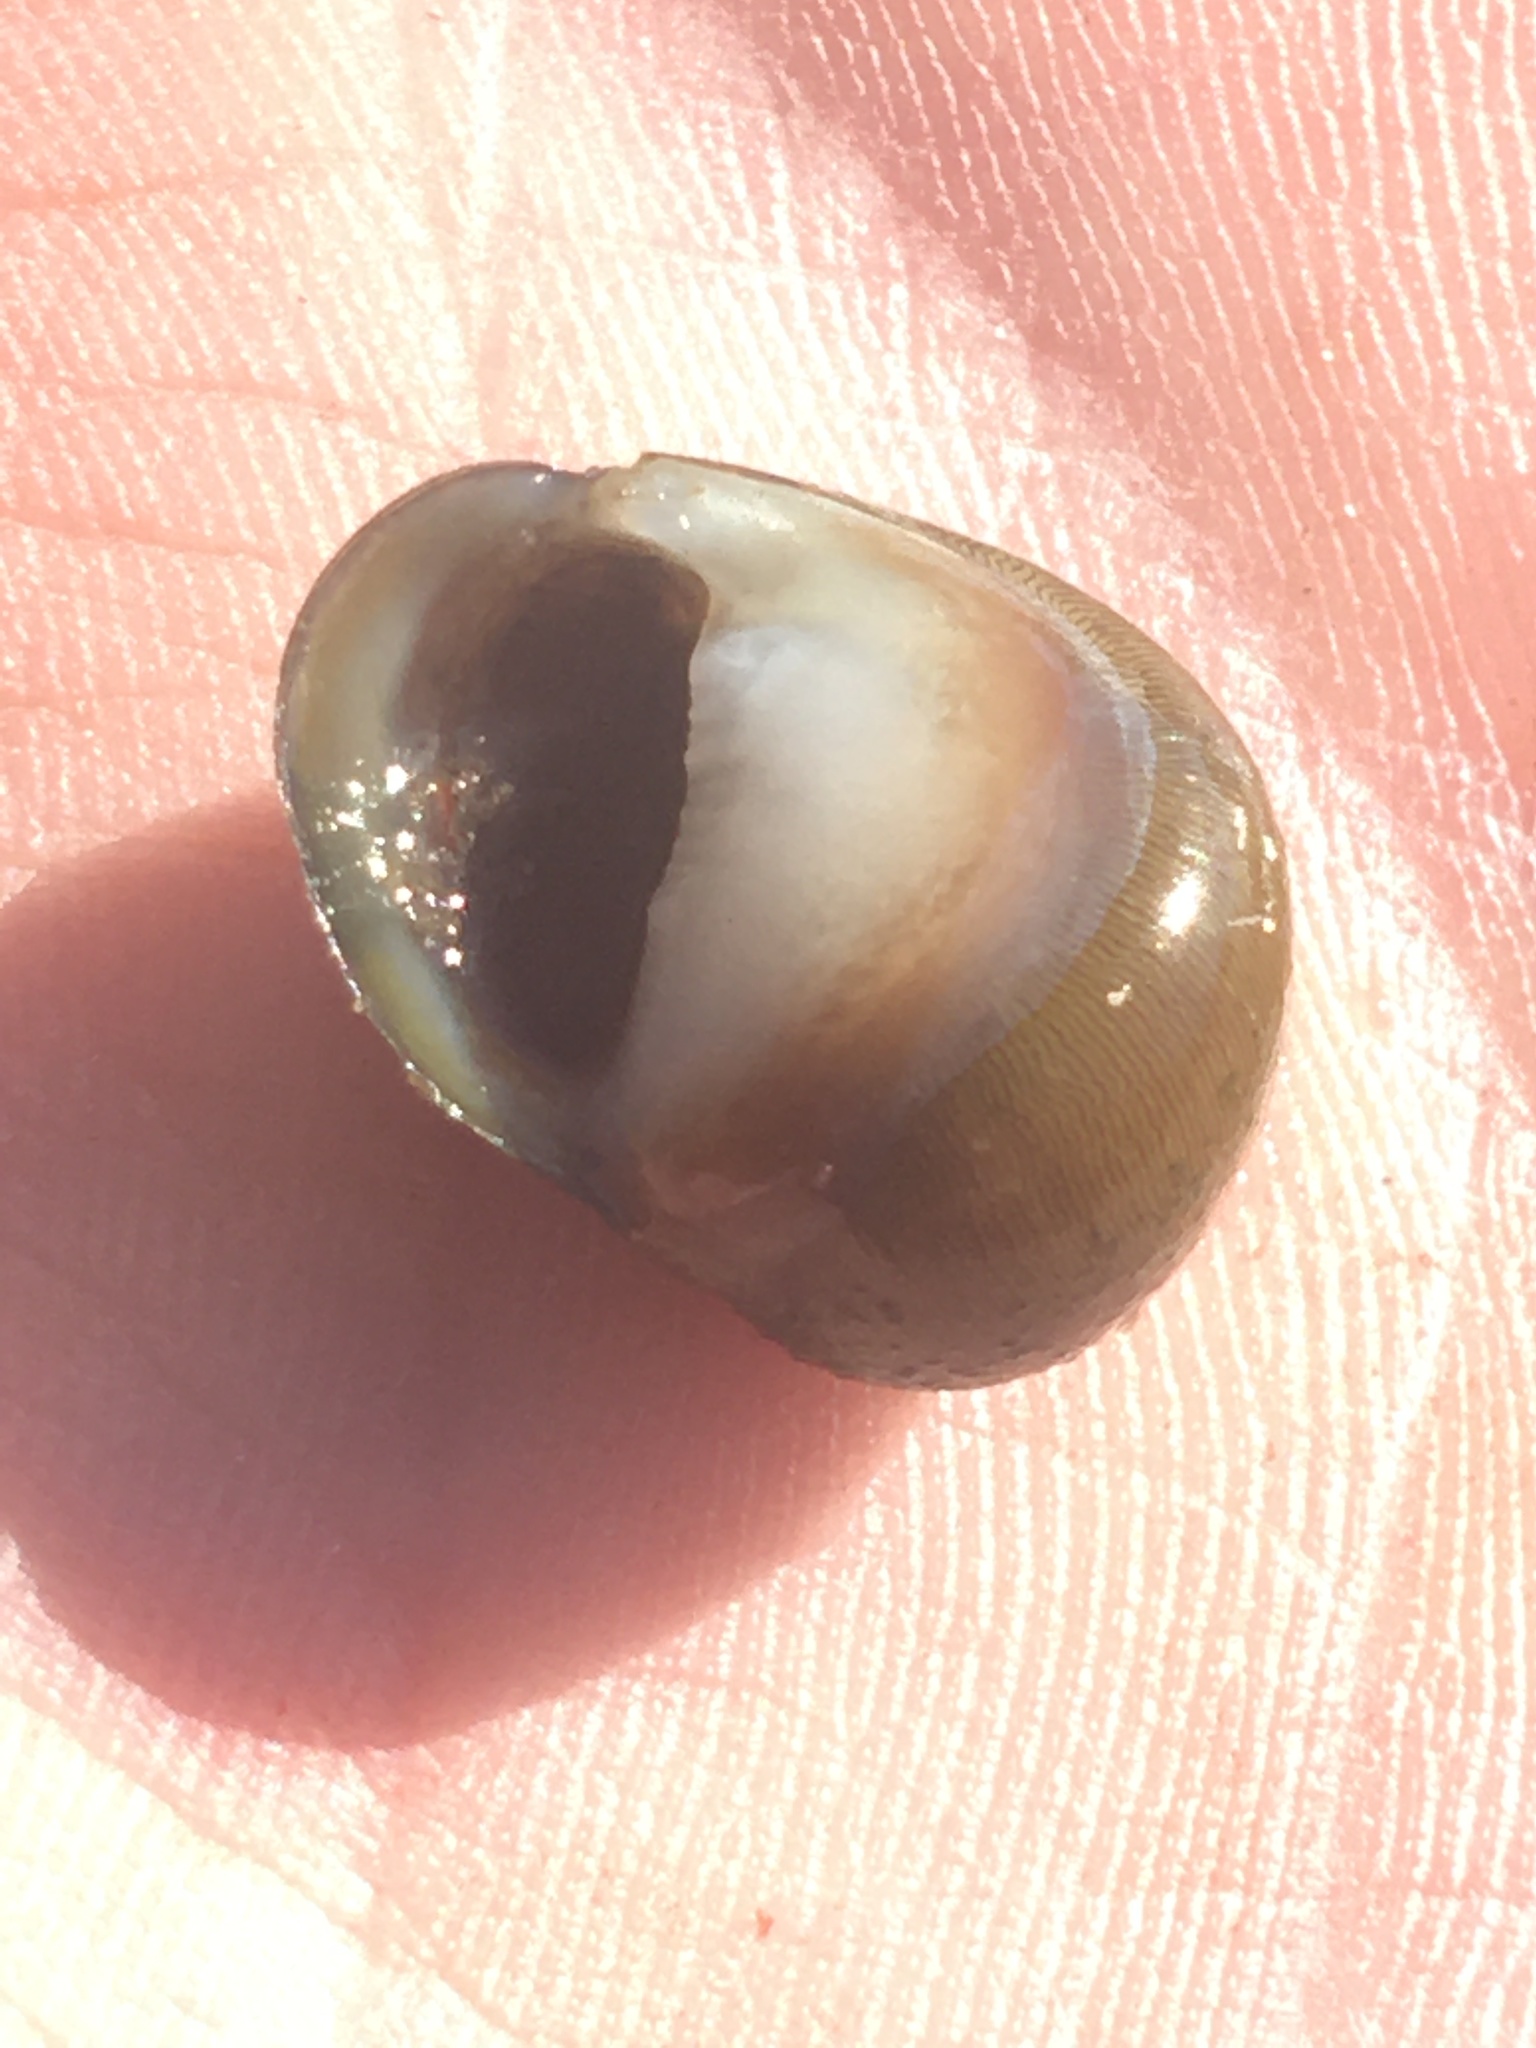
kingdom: Animalia
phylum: Mollusca
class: Gastropoda
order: Cycloneritida
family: Neritidae
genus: Vitta
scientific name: Vitta usnea
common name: Olive nerite
